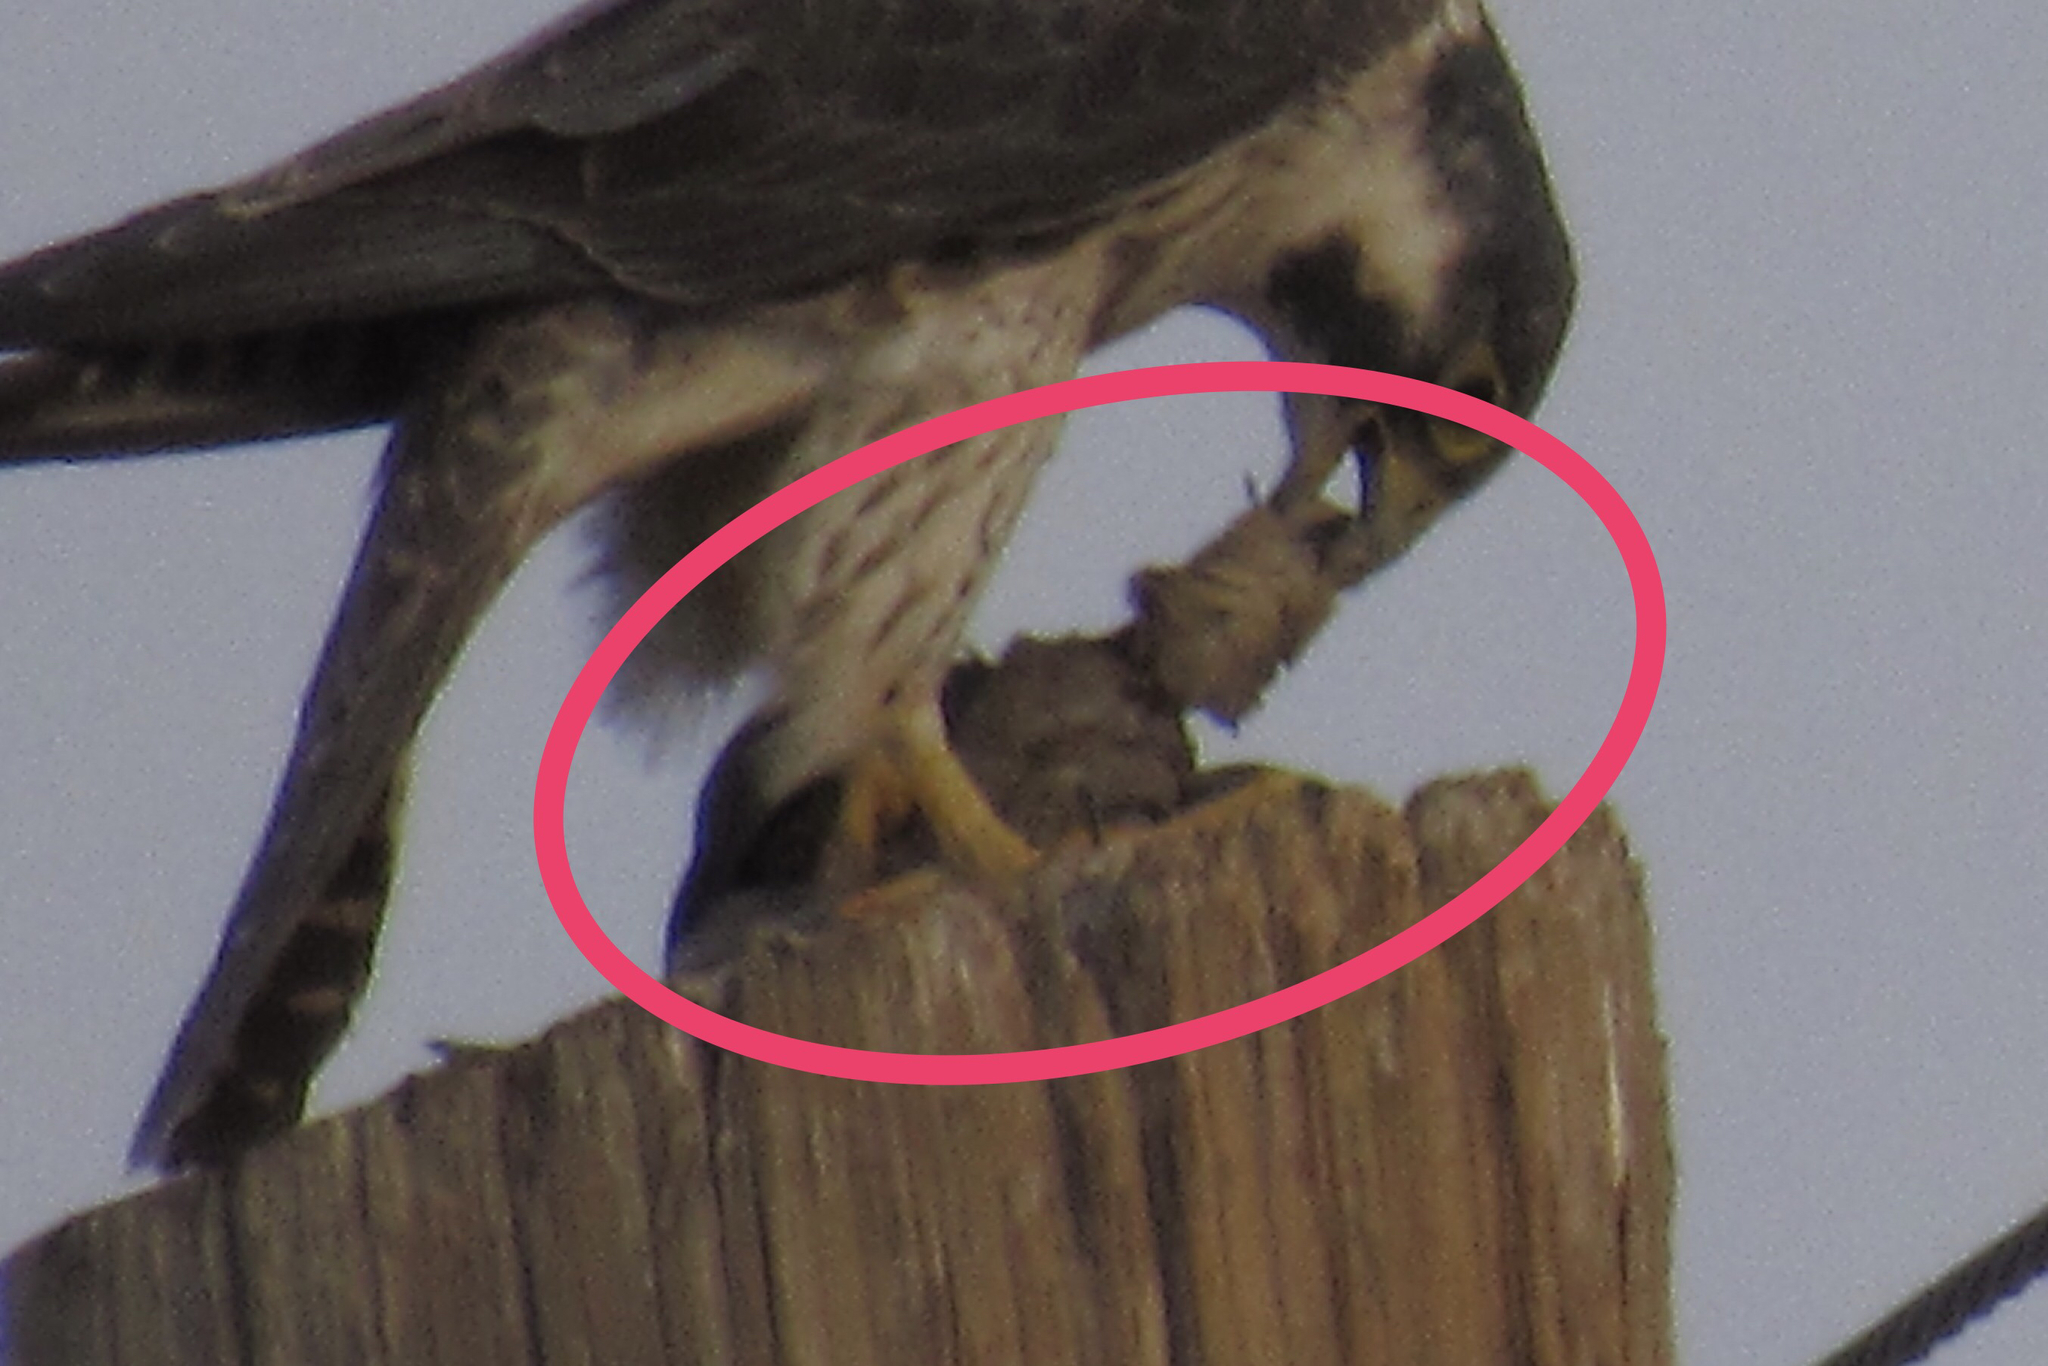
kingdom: Animalia
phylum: Chordata
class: Aves
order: Columbiformes
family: Columbidae
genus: Zenaida
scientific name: Zenaida macroura
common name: Mourning dove
